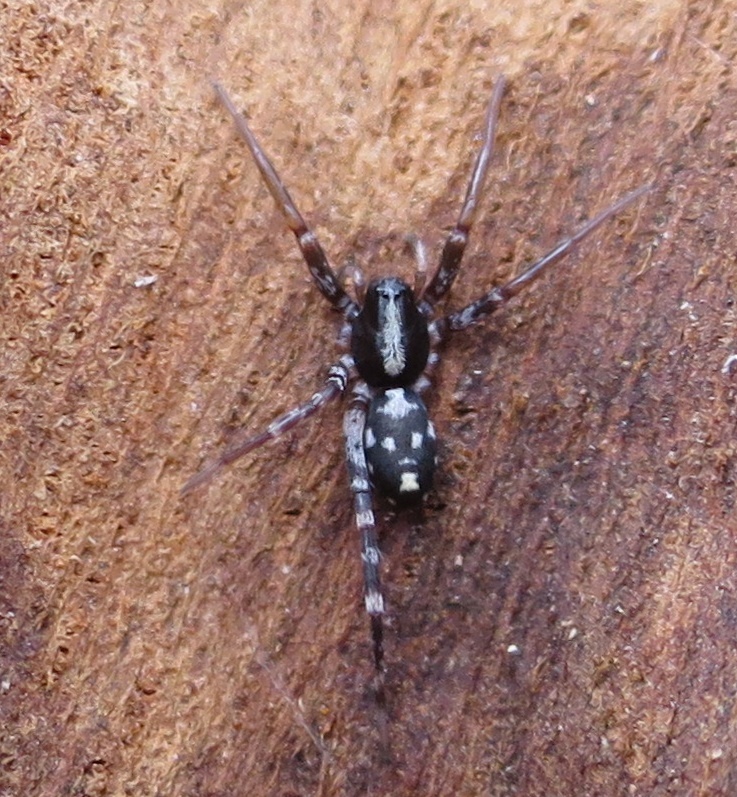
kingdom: Animalia
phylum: Arthropoda
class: Arachnida
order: Araneae
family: Corinnidae
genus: Nyssus
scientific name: Nyssus coloripes
